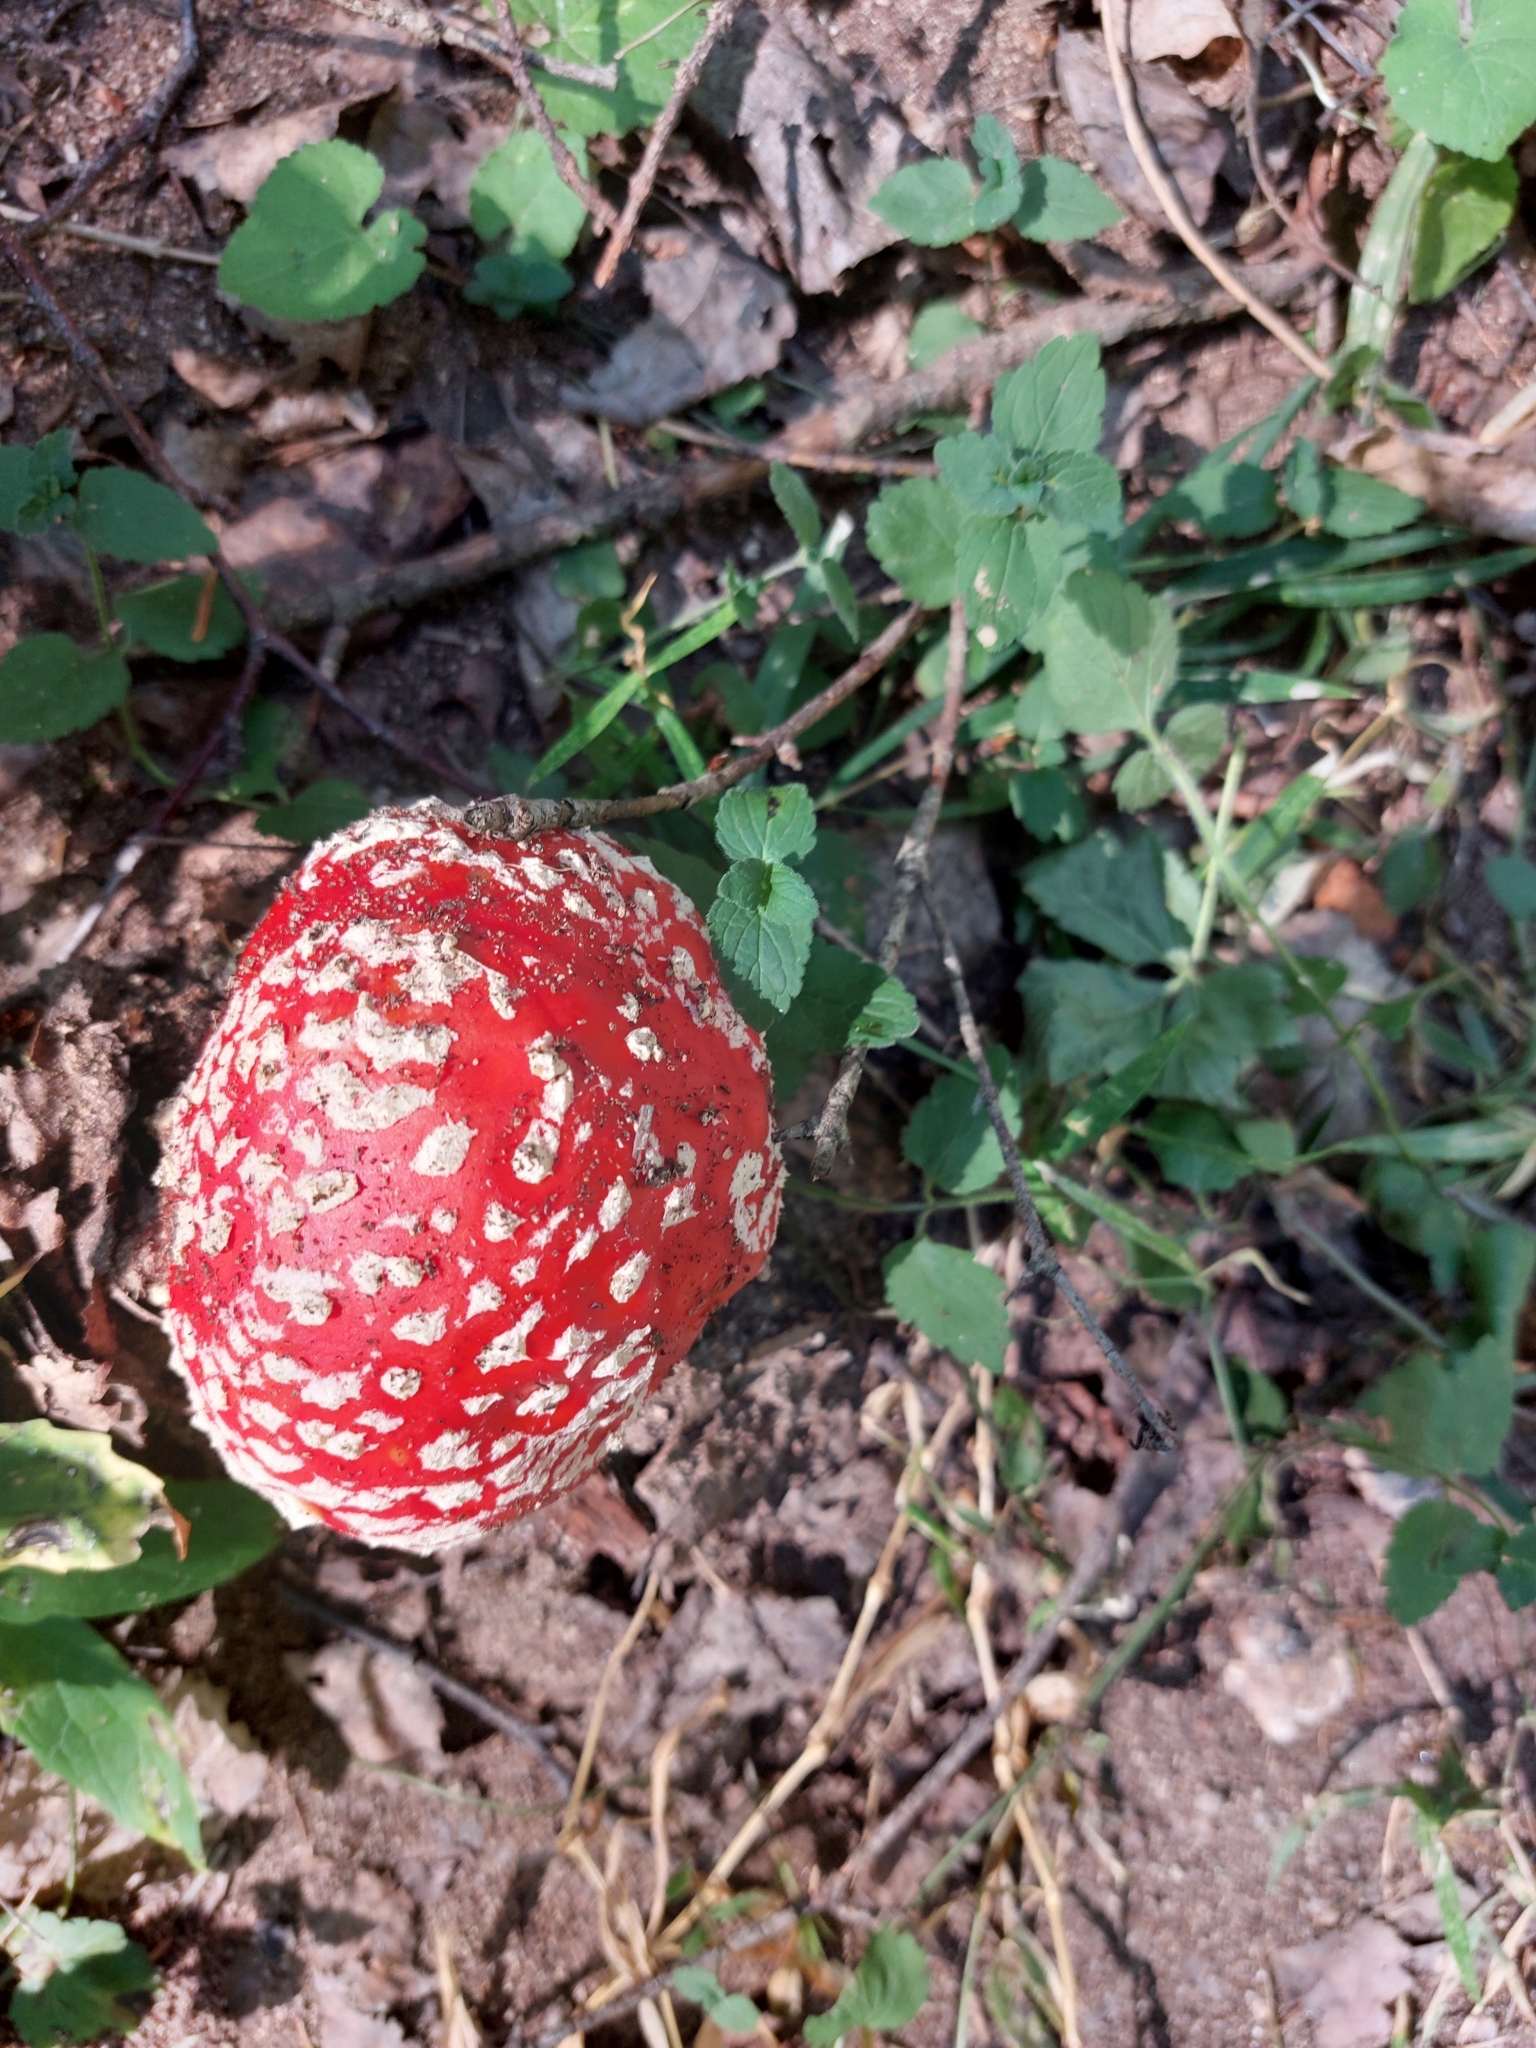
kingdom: Fungi
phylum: Basidiomycota
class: Agaricomycetes
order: Agaricales
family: Amanitaceae
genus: Amanita
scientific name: Amanita muscaria
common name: Fly agaric
